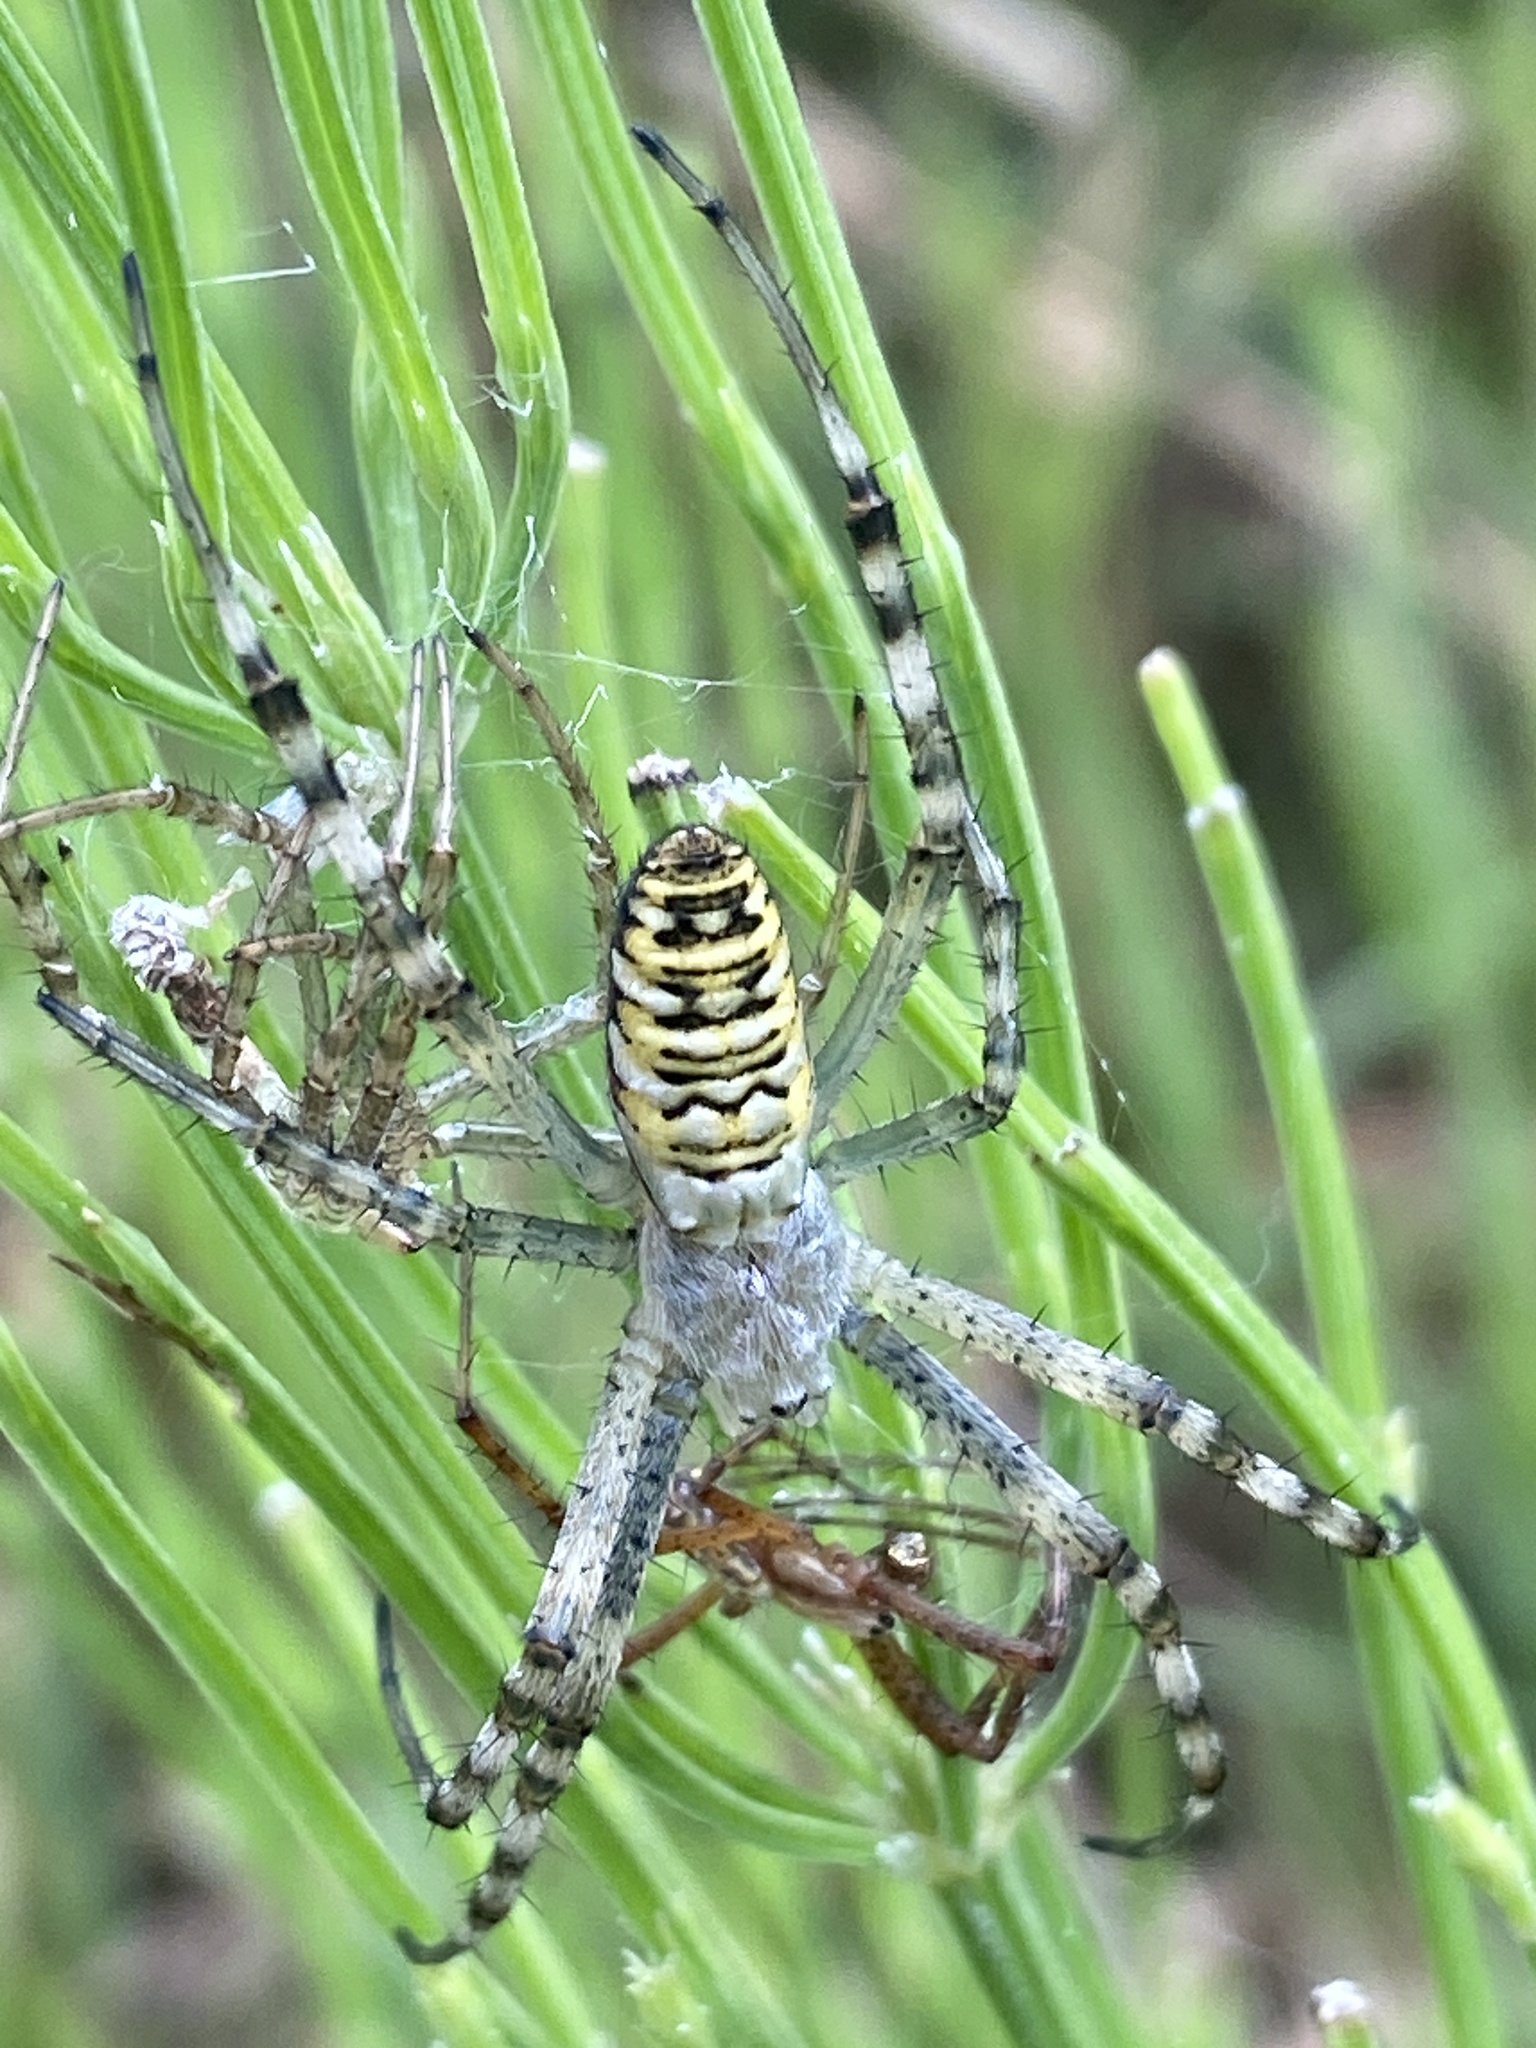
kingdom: Animalia
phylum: Arthropoda
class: Arachnida
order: Araneae
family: Araneidae
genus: Argiope
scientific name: Argiope bruennichi
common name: Wasp spider
